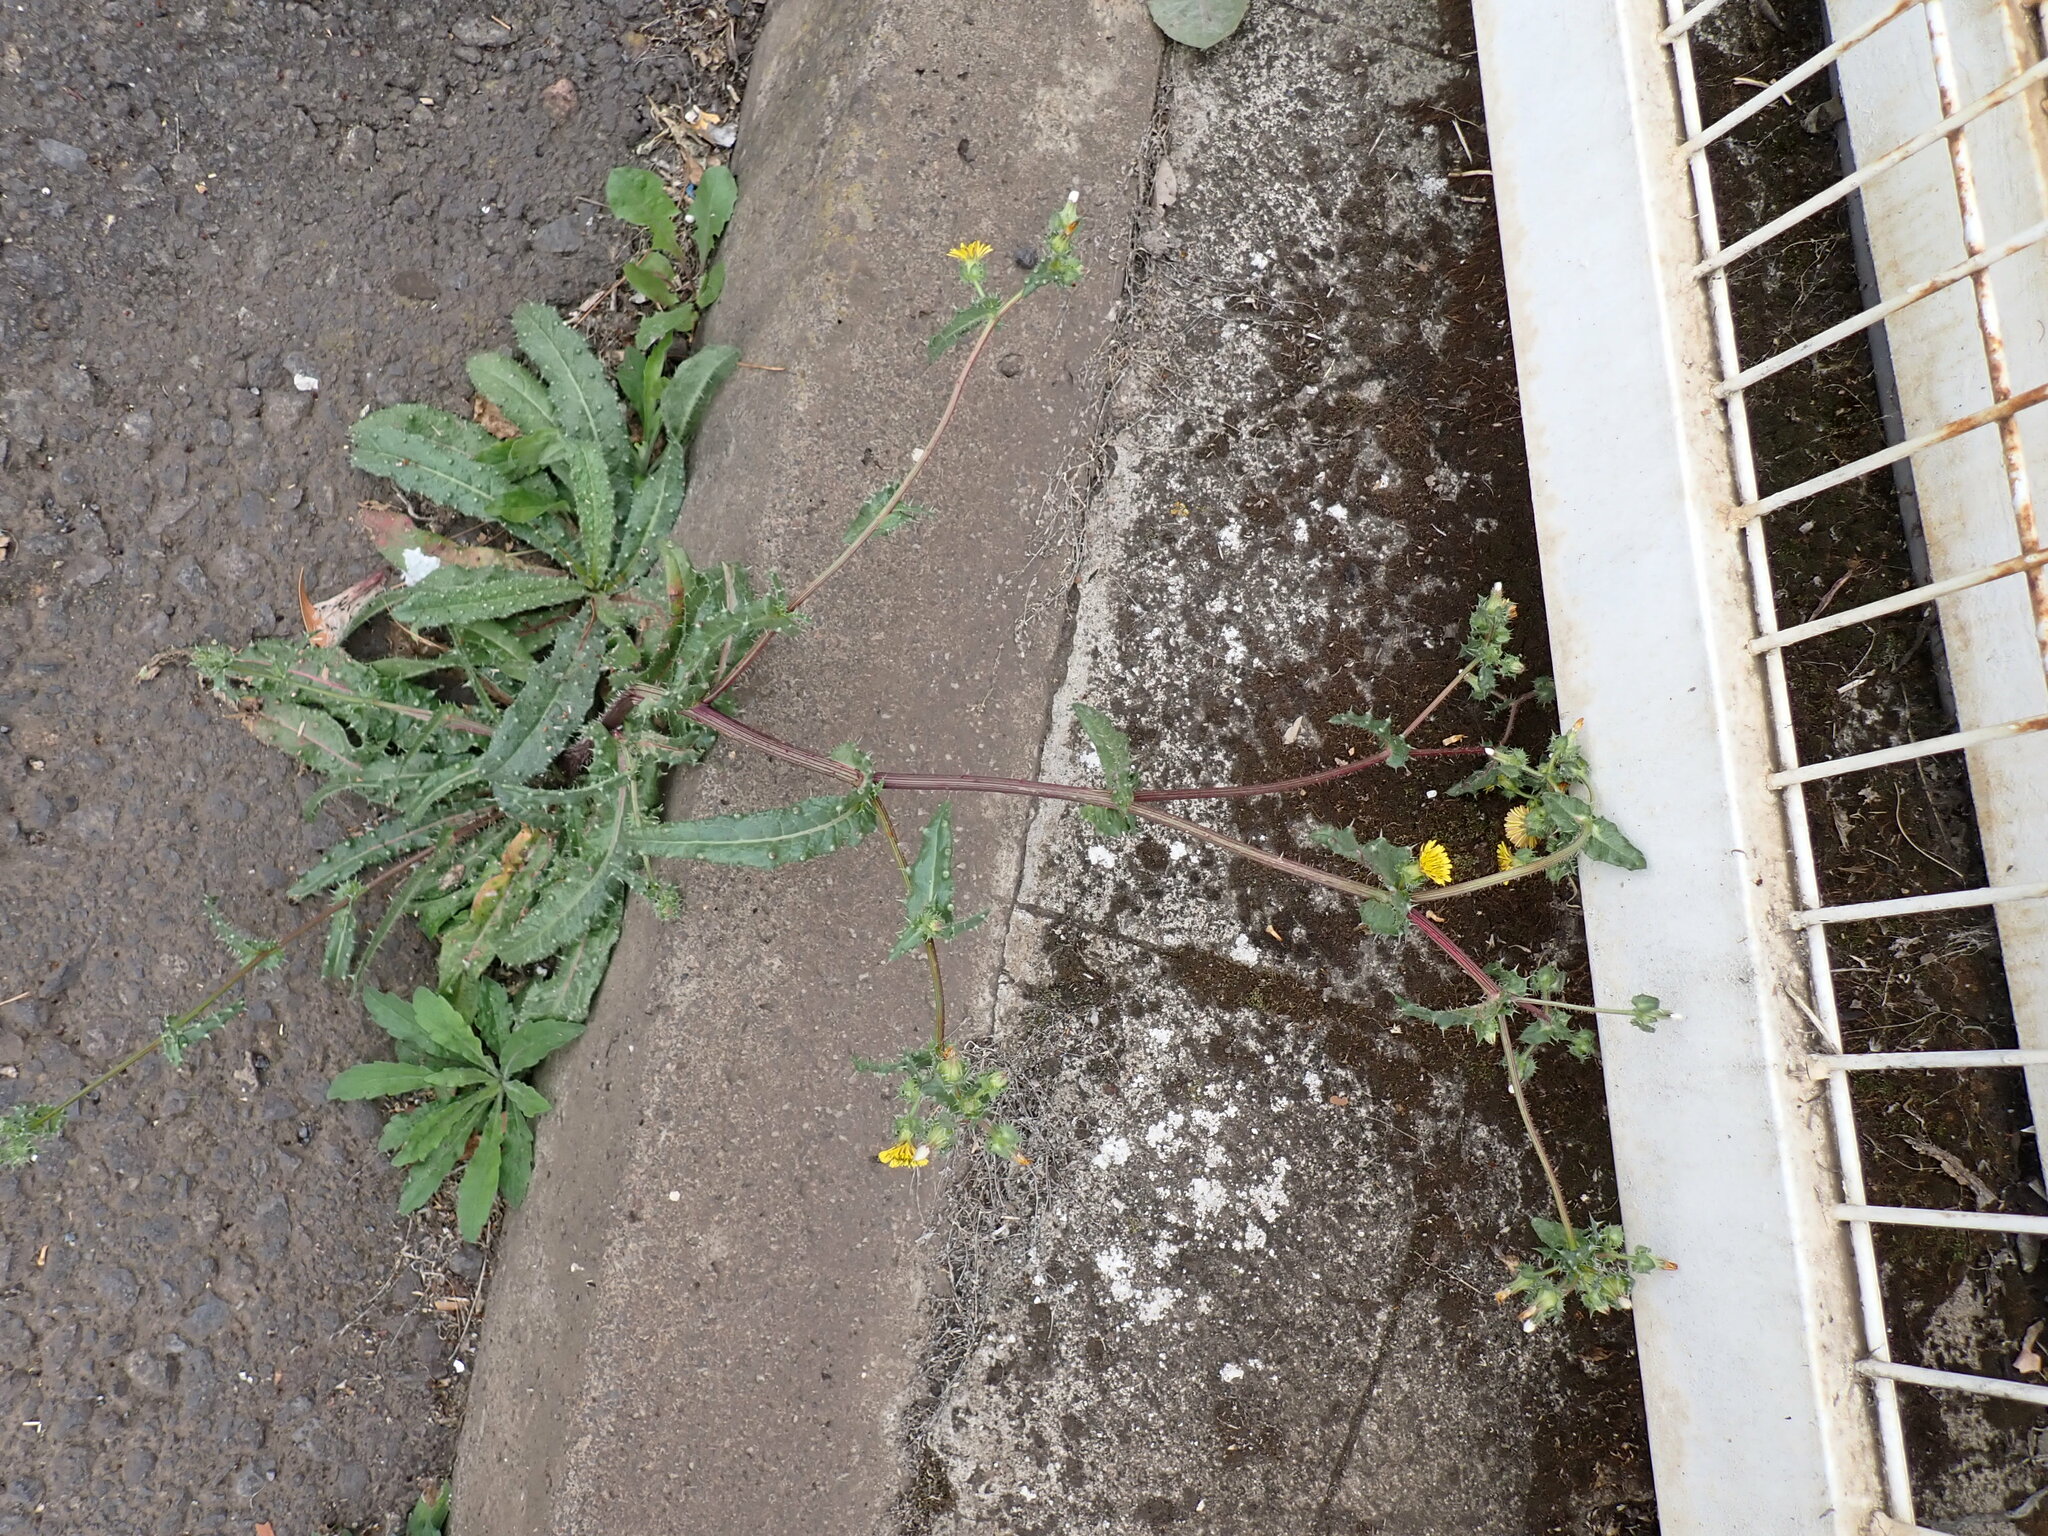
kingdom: Plantae
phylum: Tracheophyta
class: Magnoliopsida
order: Asterales
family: Asteraceae
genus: Helminthotheca
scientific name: Helminthotheca echioides
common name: Ox-tongue
